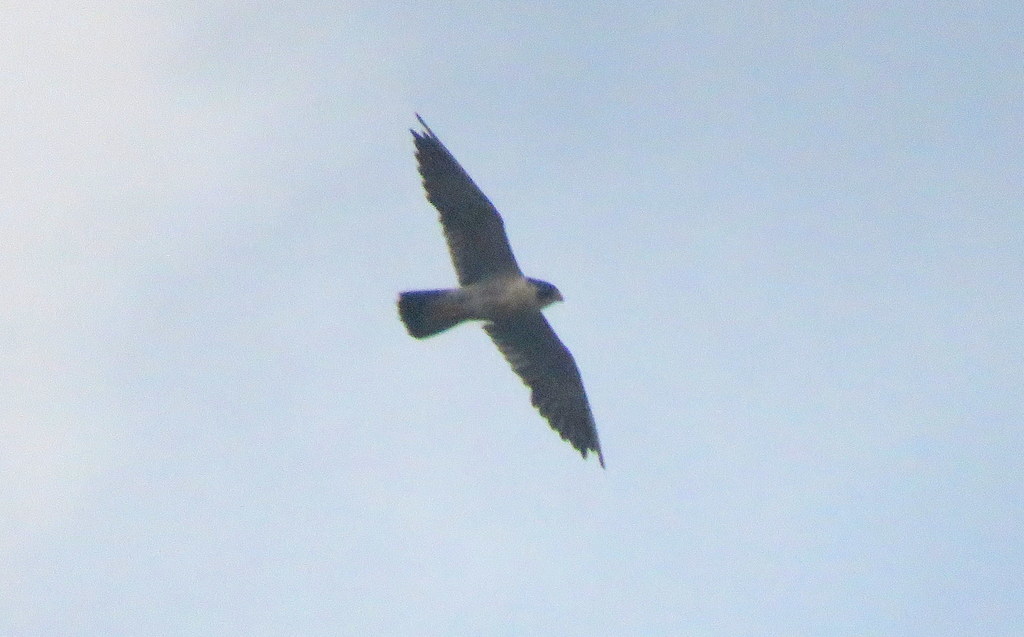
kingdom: Animalia
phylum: Chordata
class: Aves
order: Falconiformes
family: Falconidae
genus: Falco
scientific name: Falco peregrinus
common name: Peregrine falcon
